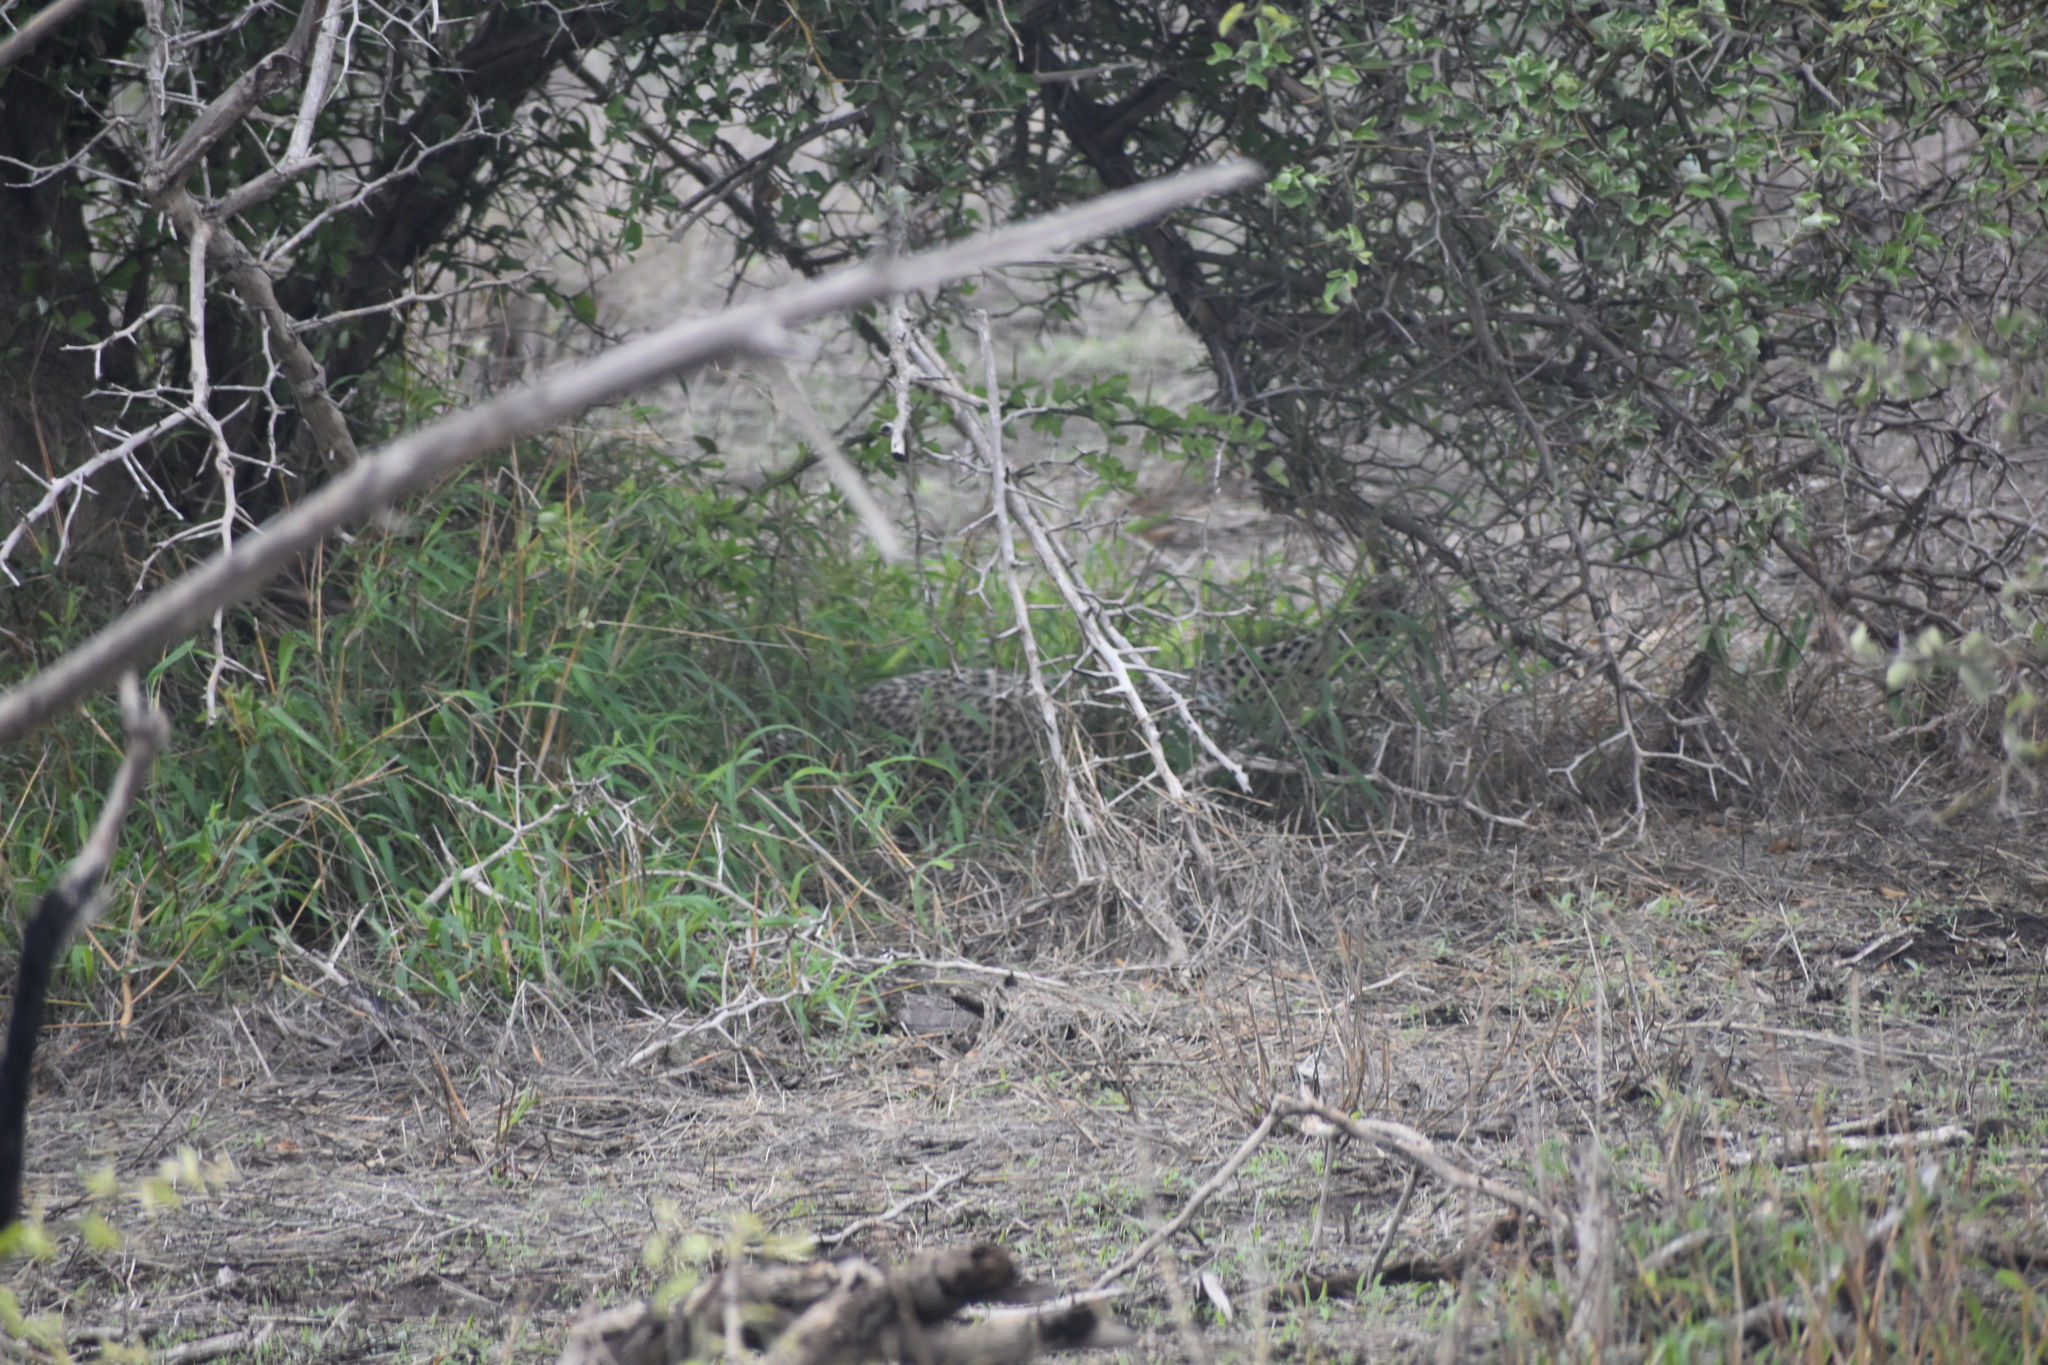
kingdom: Animalia
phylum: Chordata
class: Mammalia
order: Carnivora
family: Felidae
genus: Panthera
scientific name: Panthera pardus
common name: Leopard
